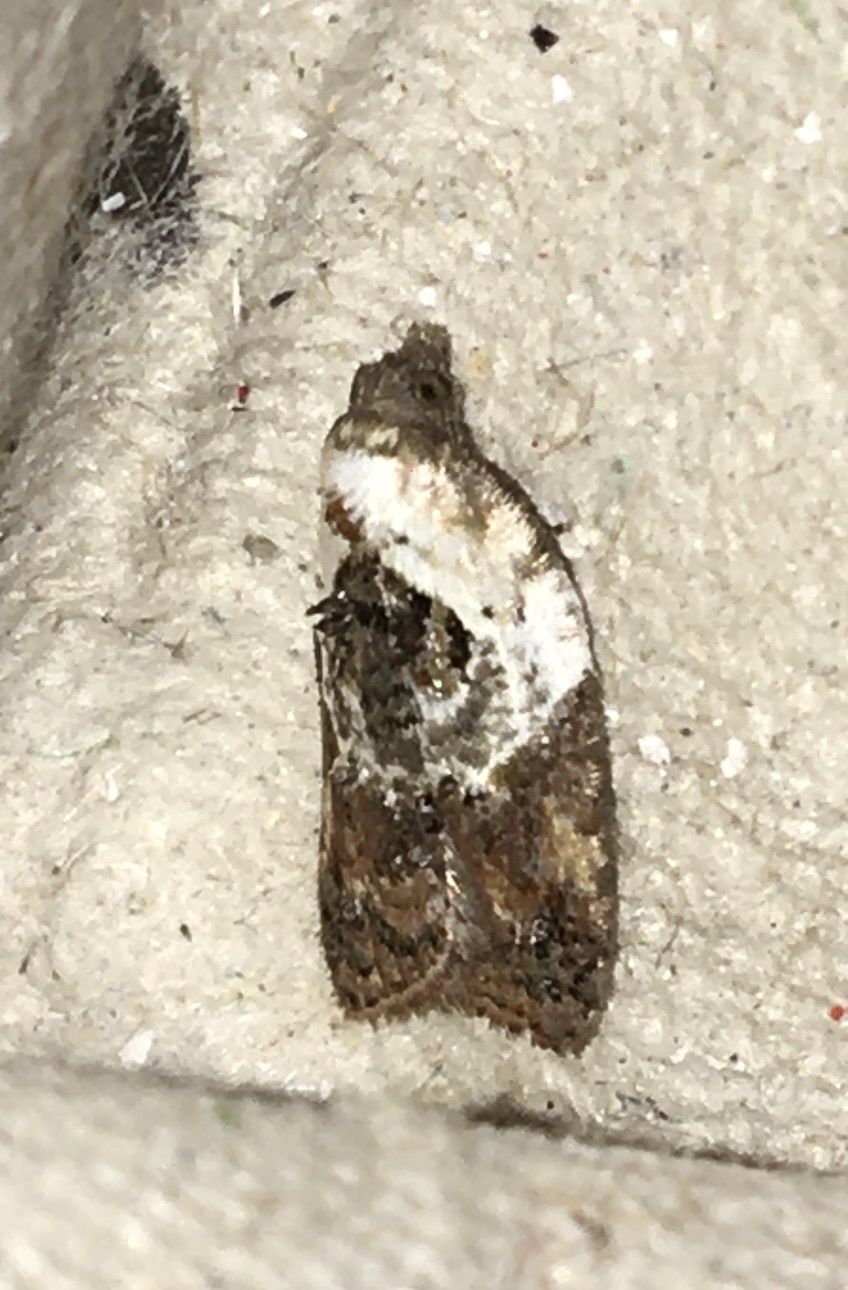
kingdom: Animalia
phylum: Arthropoda
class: Insecta
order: Lepidoptera
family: Tortricidae
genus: Acleris
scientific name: Acleris variegana
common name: Garden rose tortrix
